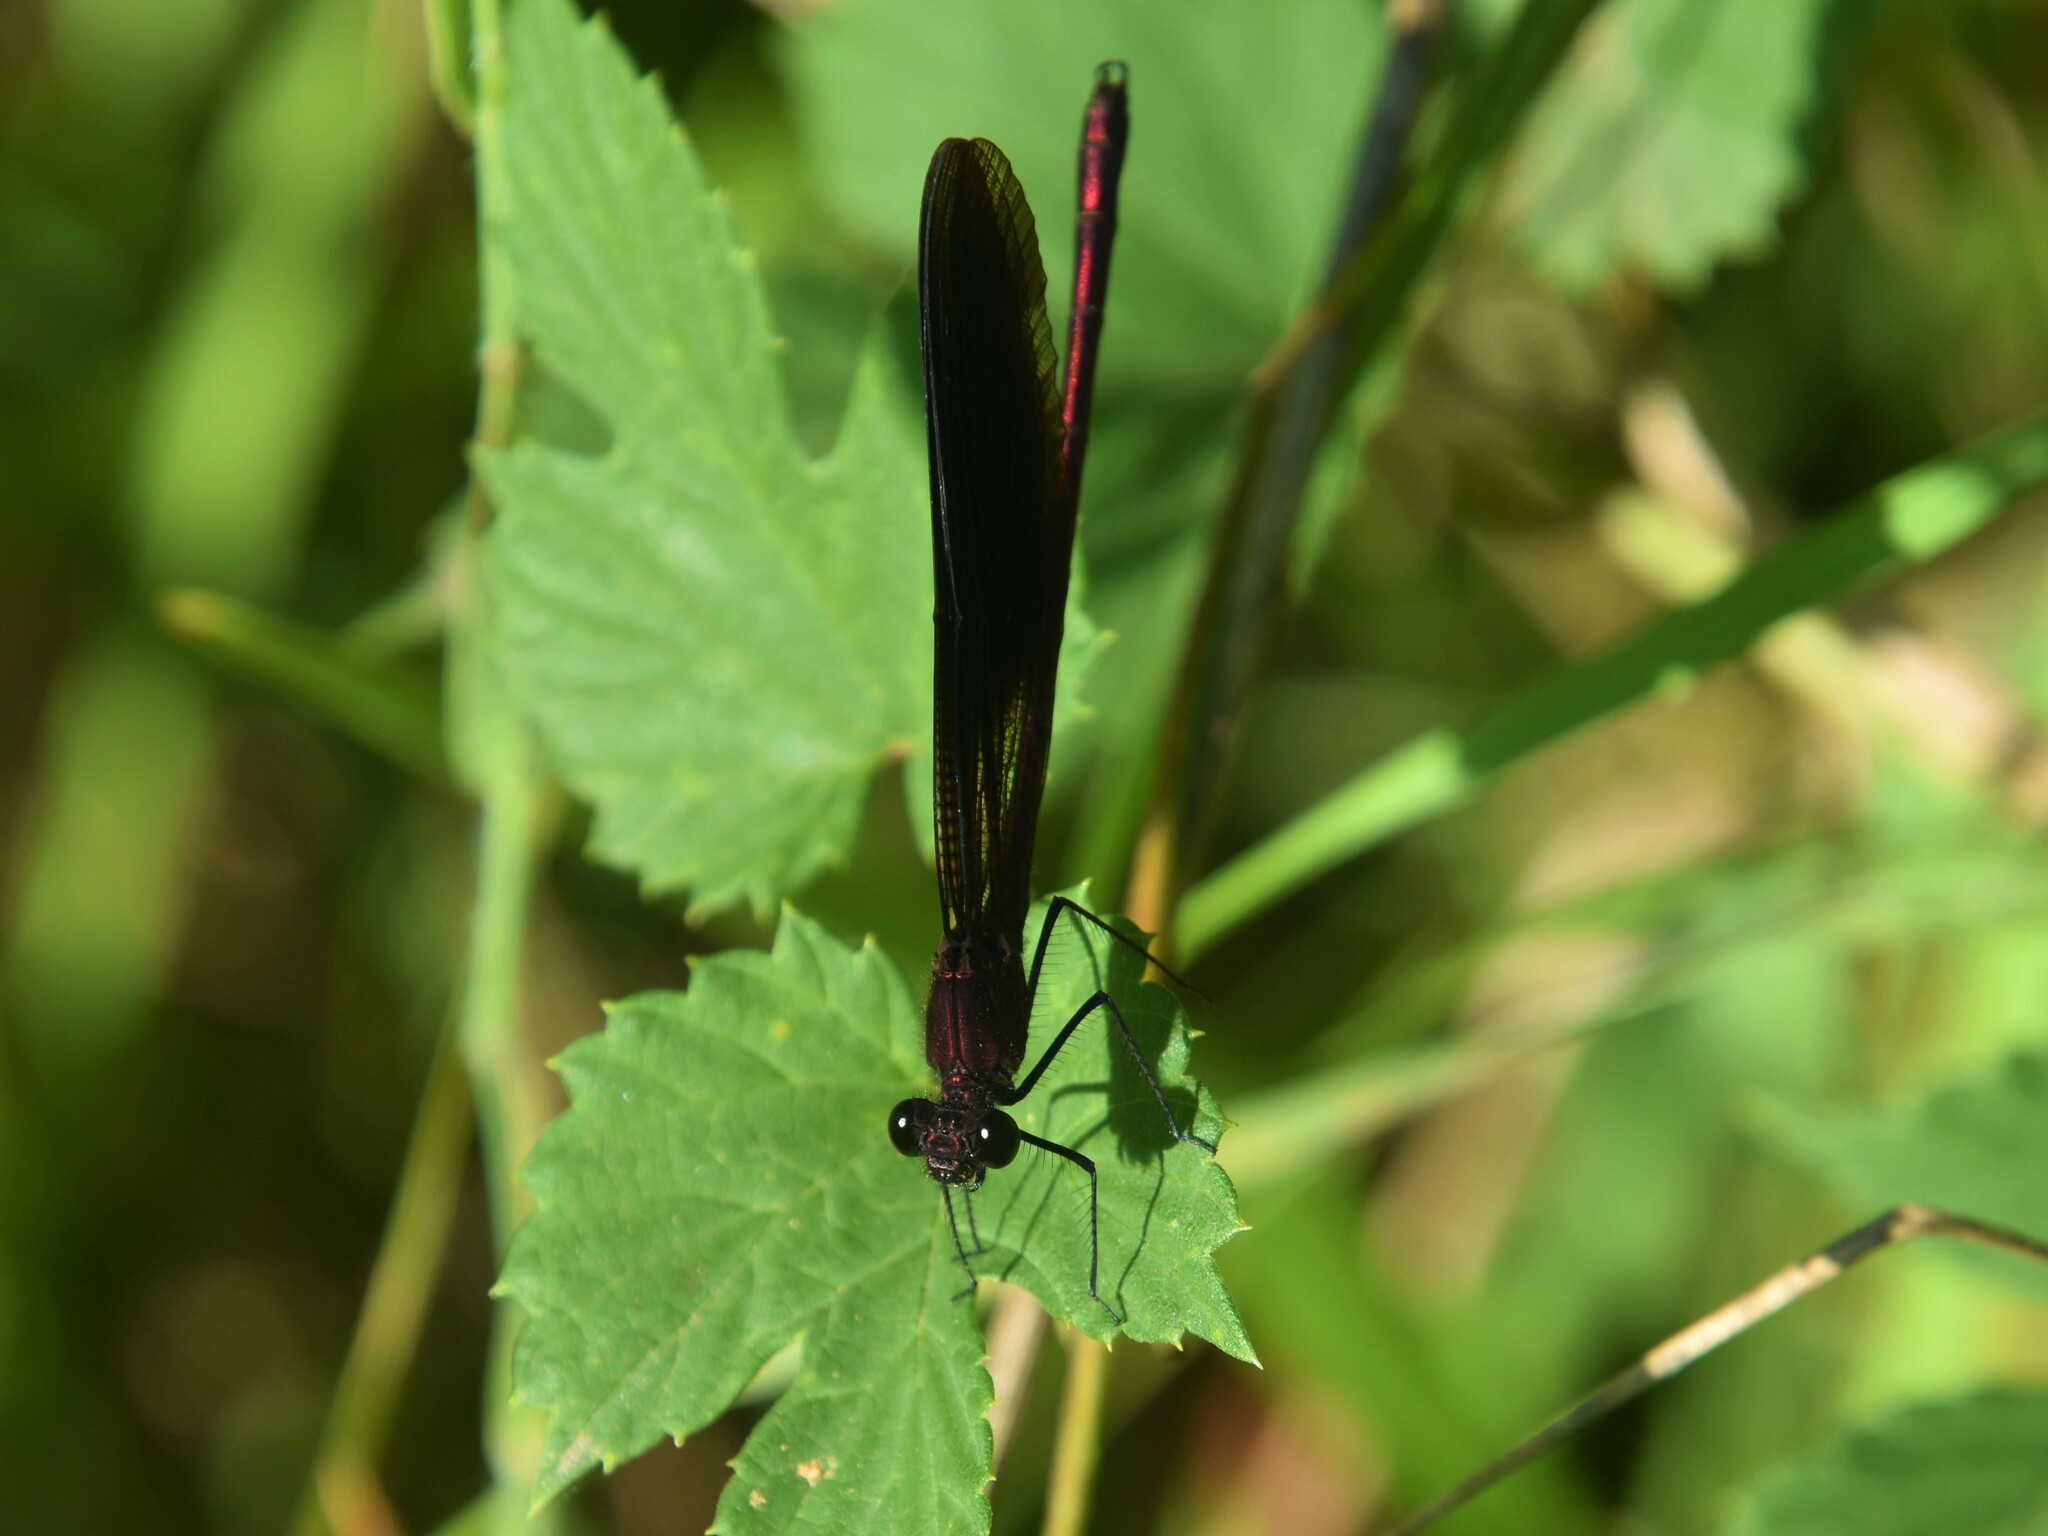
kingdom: Animalia
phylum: Arthropoda
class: Insecta
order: Odonata
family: Calopterygidae
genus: Calopteryx
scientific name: Calopteryx haemorrhoidalis
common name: Copper demoiselle
